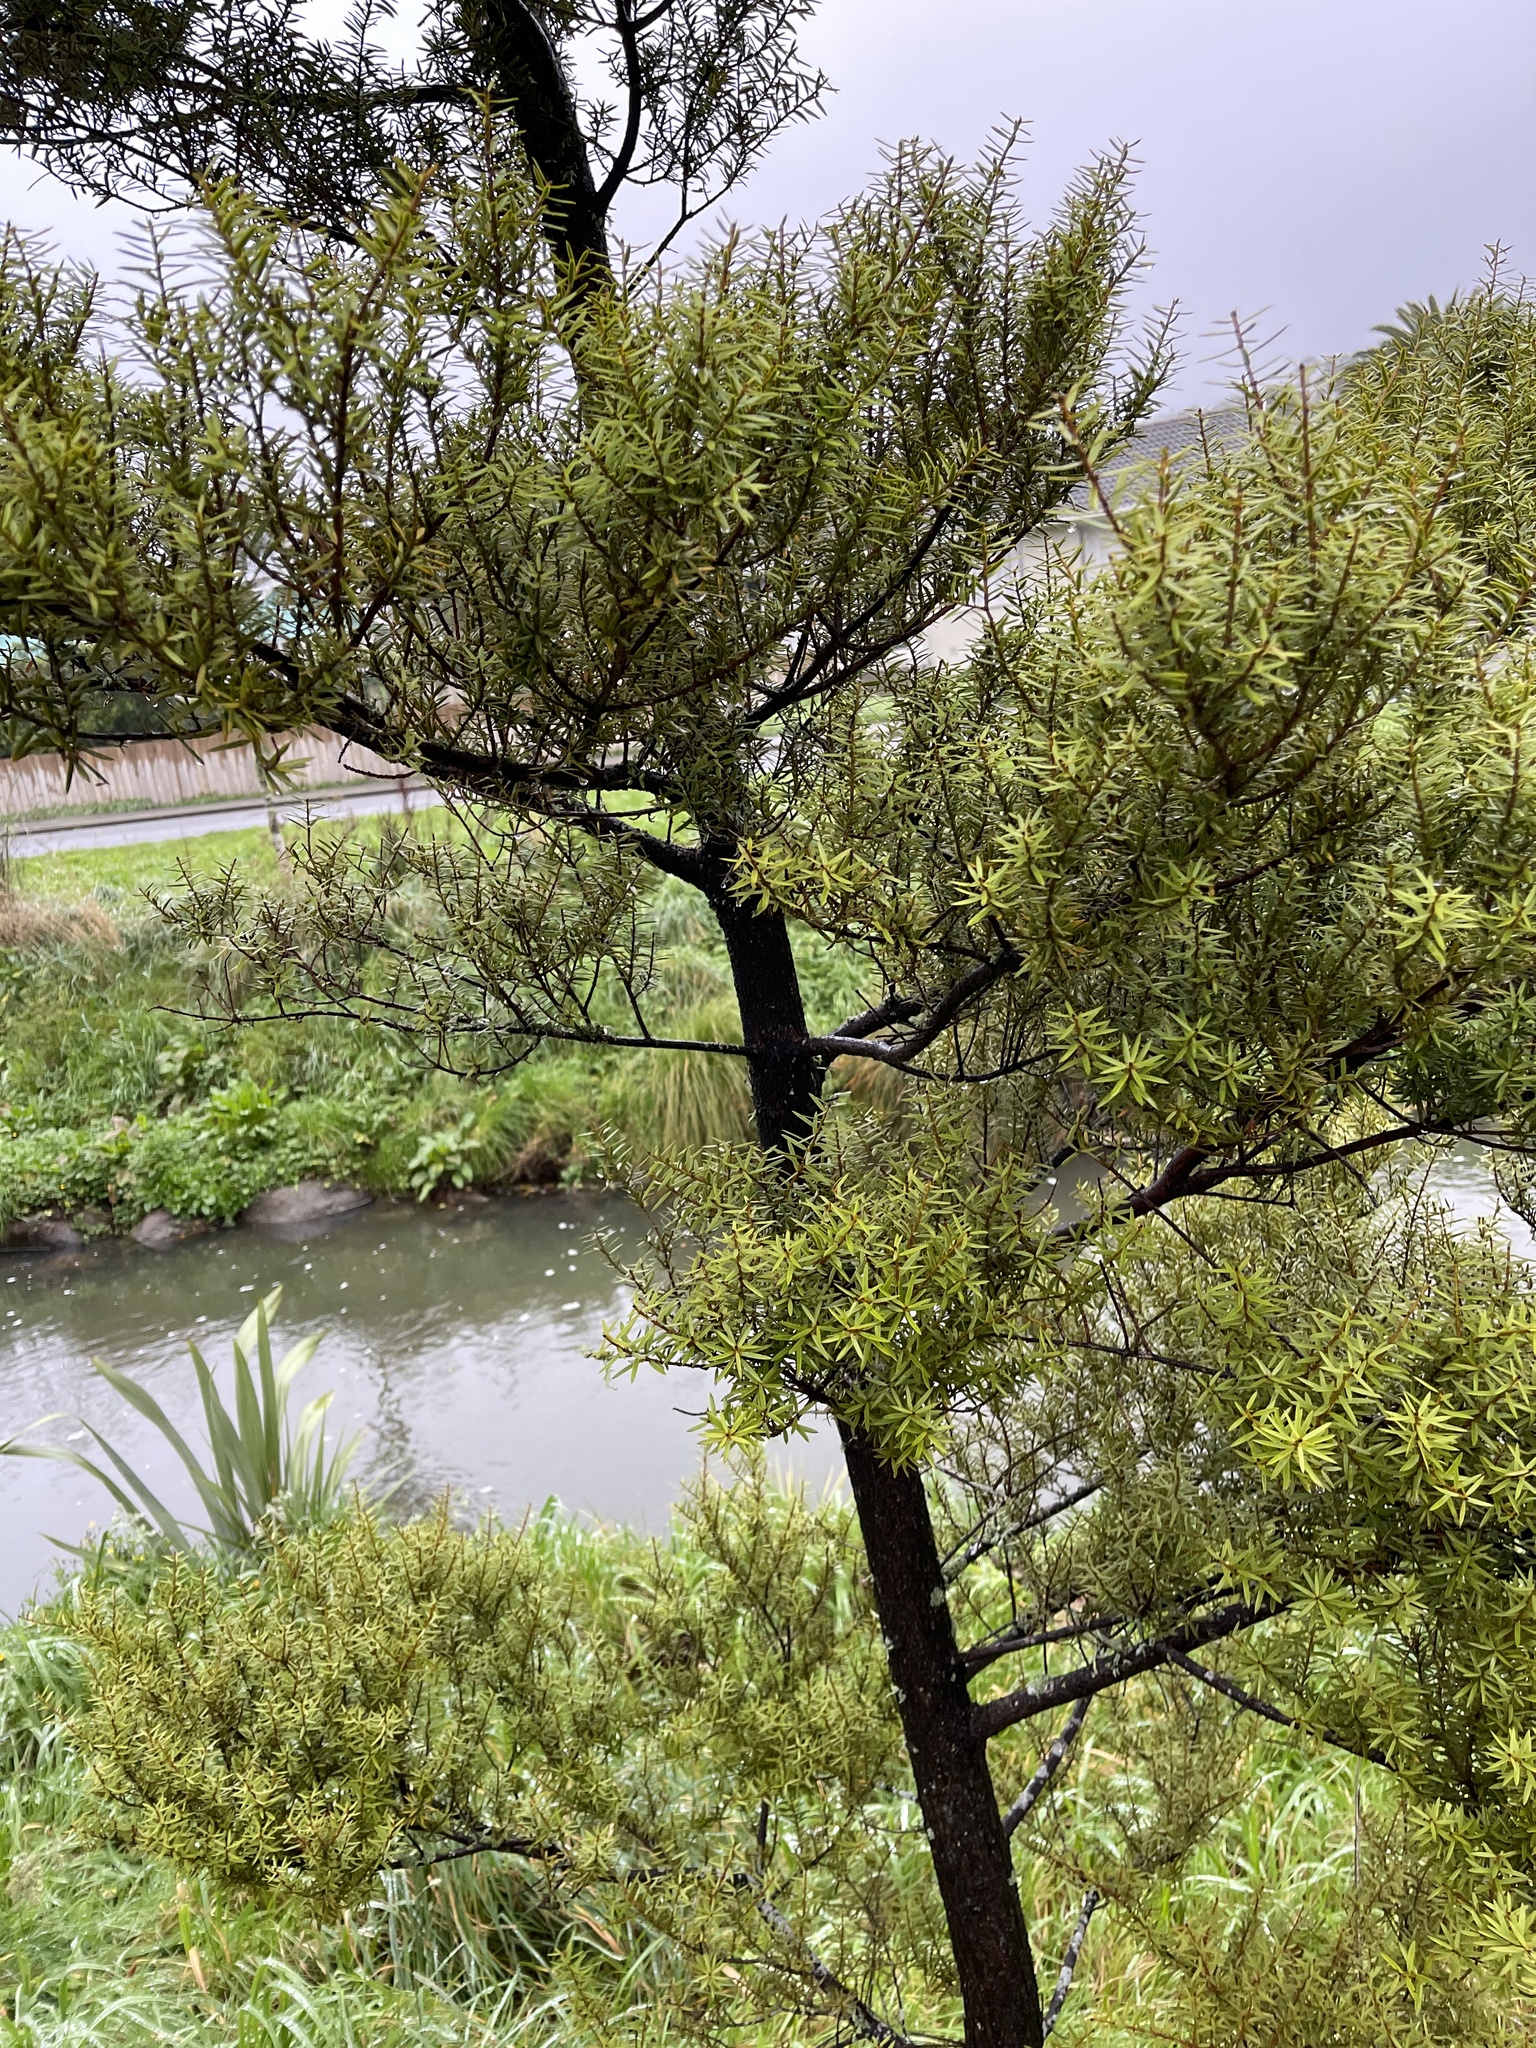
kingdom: Plantae
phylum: Tracheophyta
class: Pinopsida
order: Pinales
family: Podocarpaceae
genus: Podocarpus
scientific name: Podocarpus totara
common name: Totara
